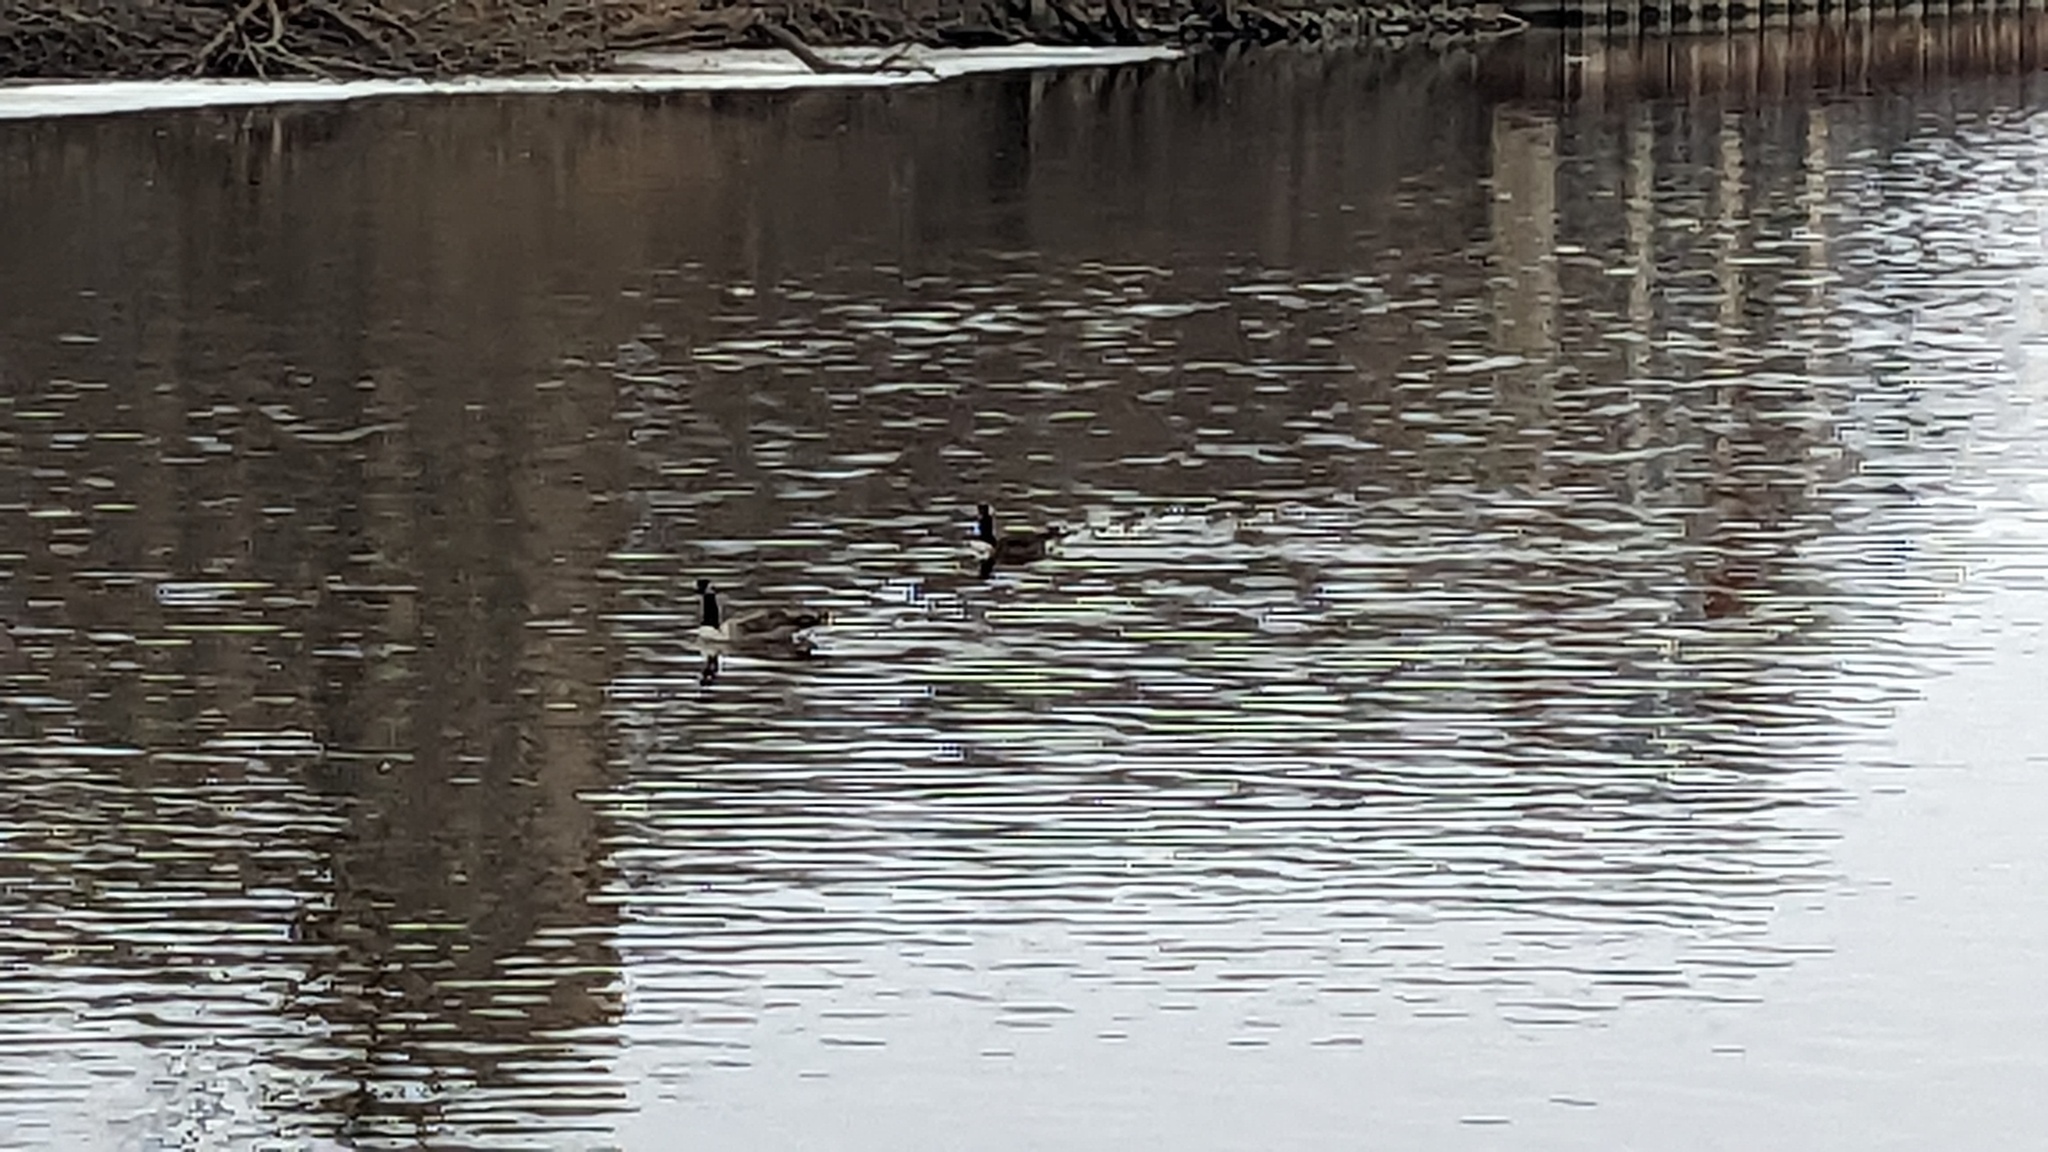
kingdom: Animalia
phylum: Chordata
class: Aves
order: Anseriformes
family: Anatidae
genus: Branta
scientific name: Branta canadensis
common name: Canada goose
